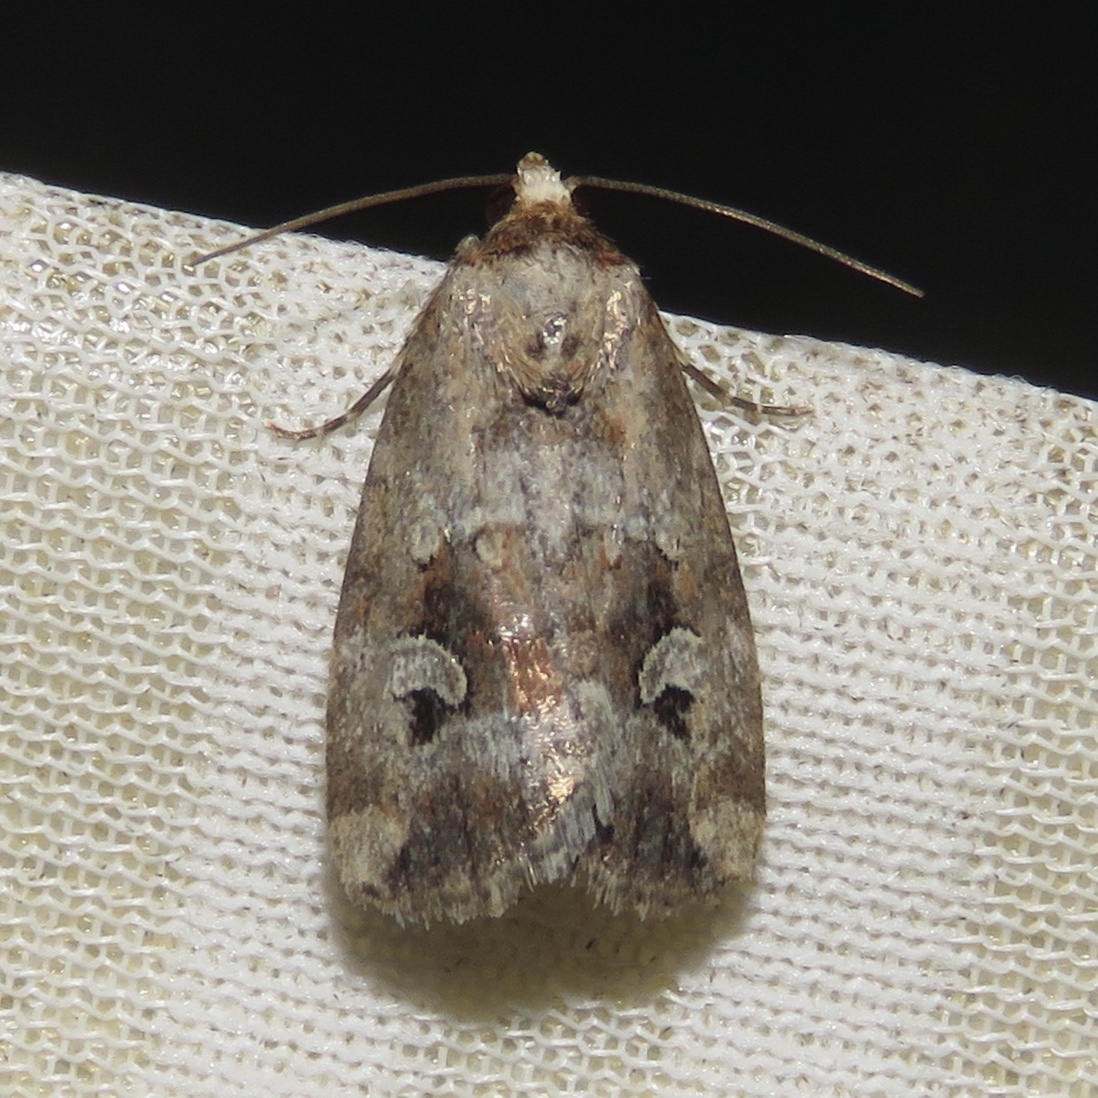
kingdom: Animalia
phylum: Arthropoda
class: Insecta
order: Lepidoptera
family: Noctuidae
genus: Elaphria
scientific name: Elaphria alapallida
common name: Pale-winged midget
